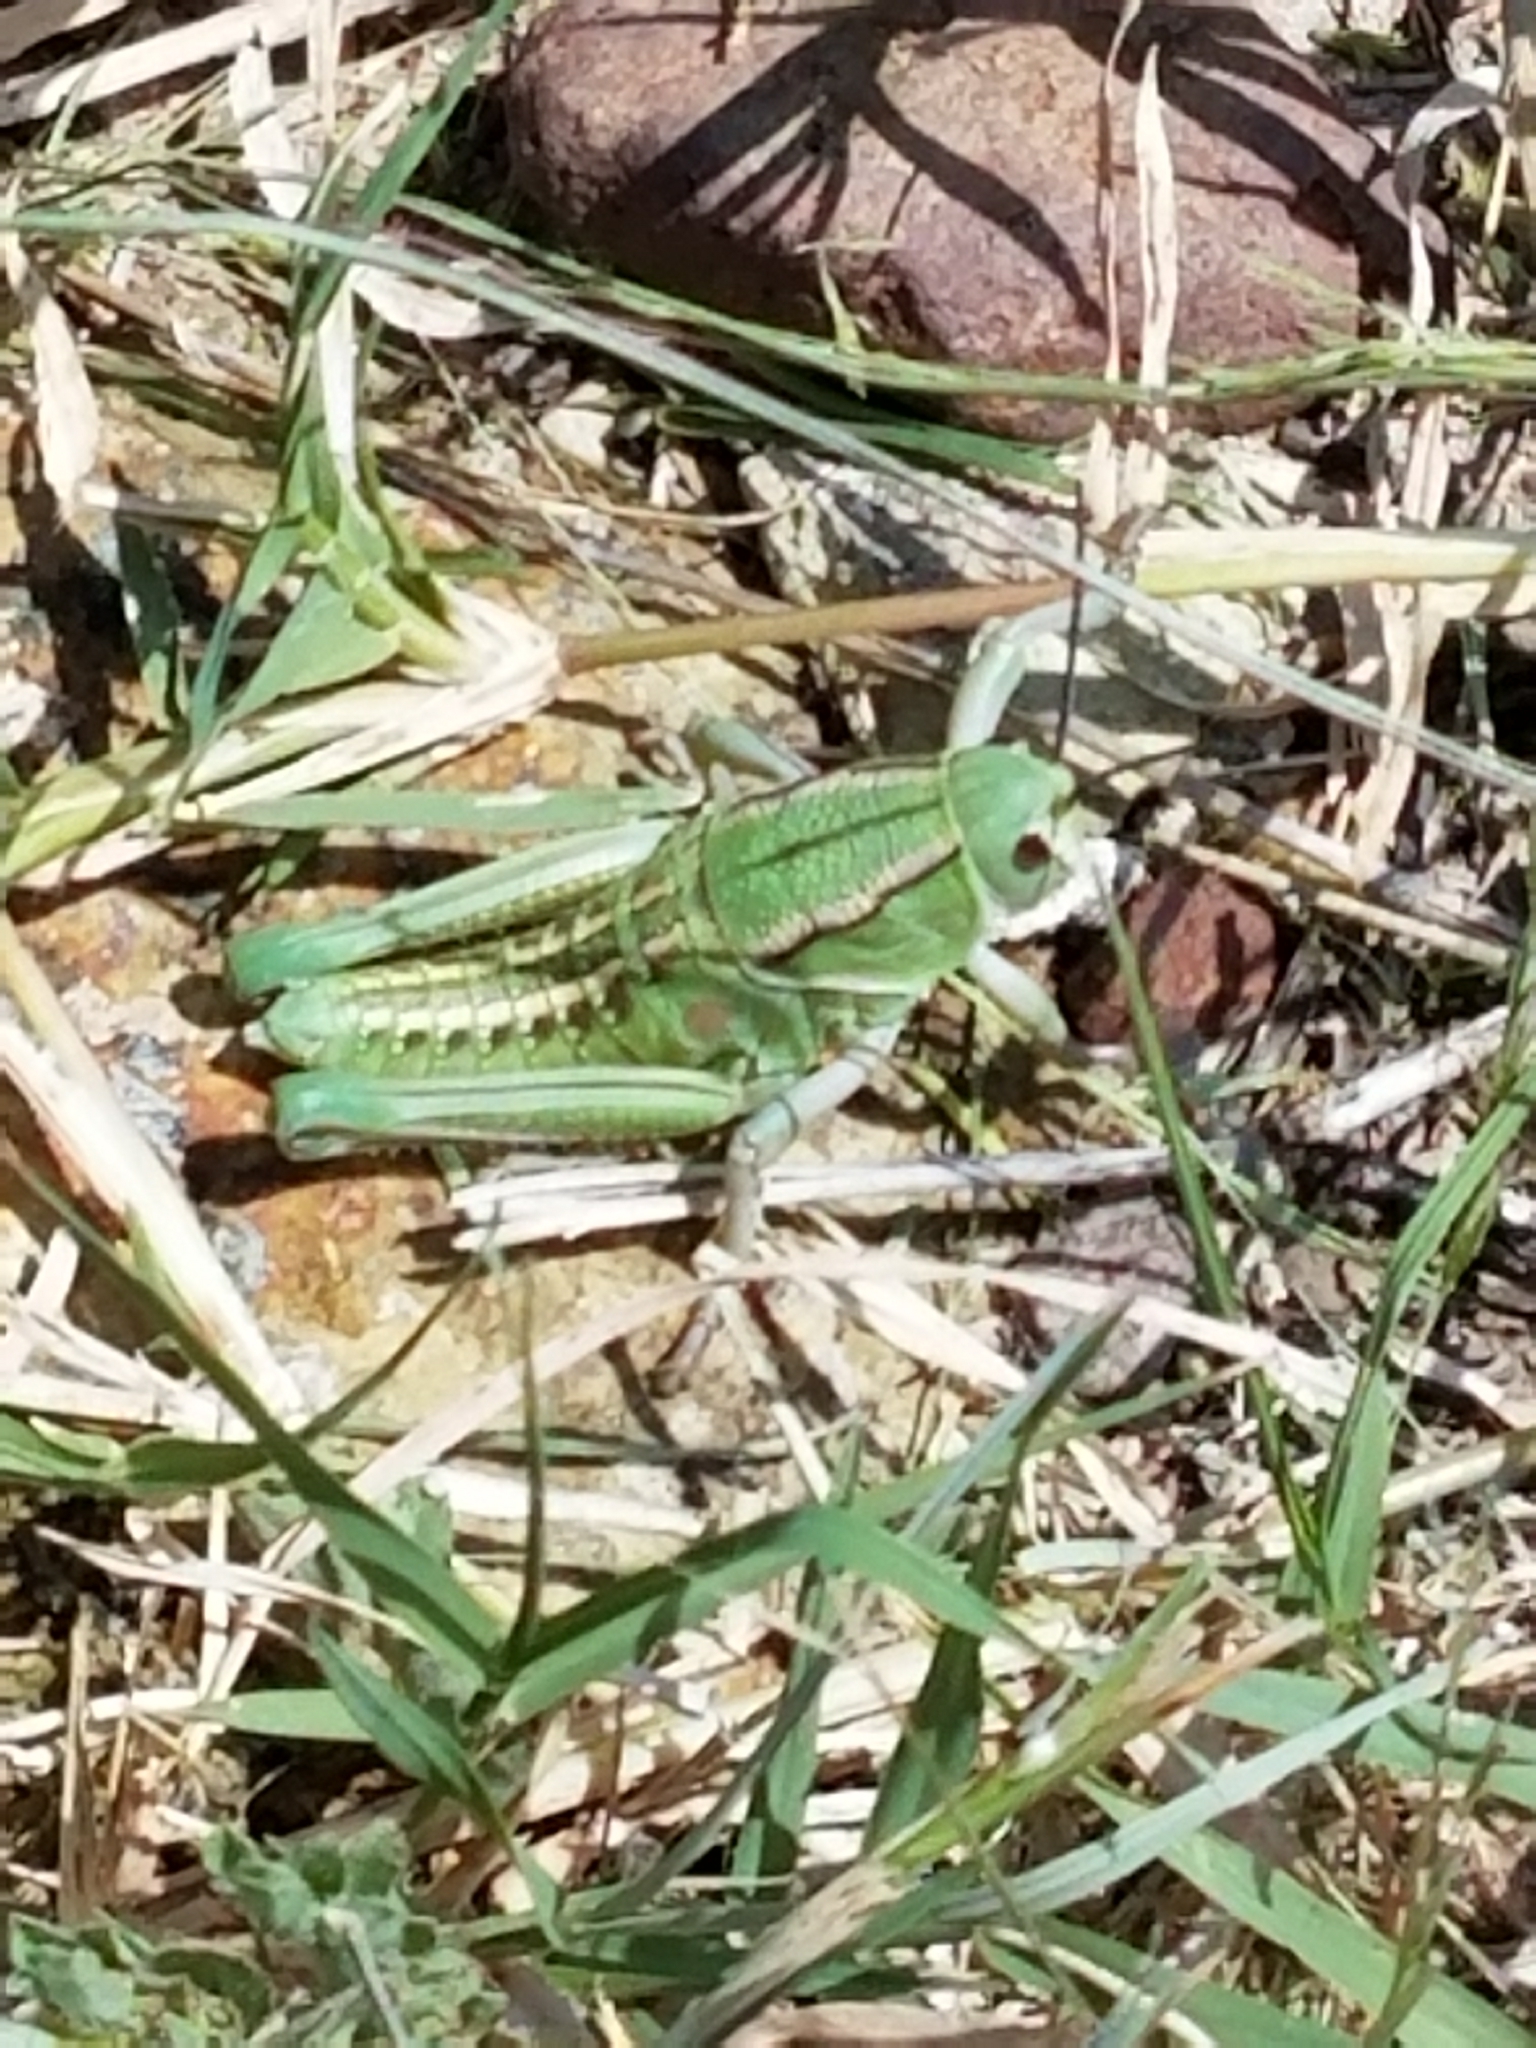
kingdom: Animalia
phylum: Arthropoda
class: Insecta
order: Orthoptera
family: Romaleidae
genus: Brachystola
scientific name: Brachystola magna
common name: Plains lubber grasshopper
